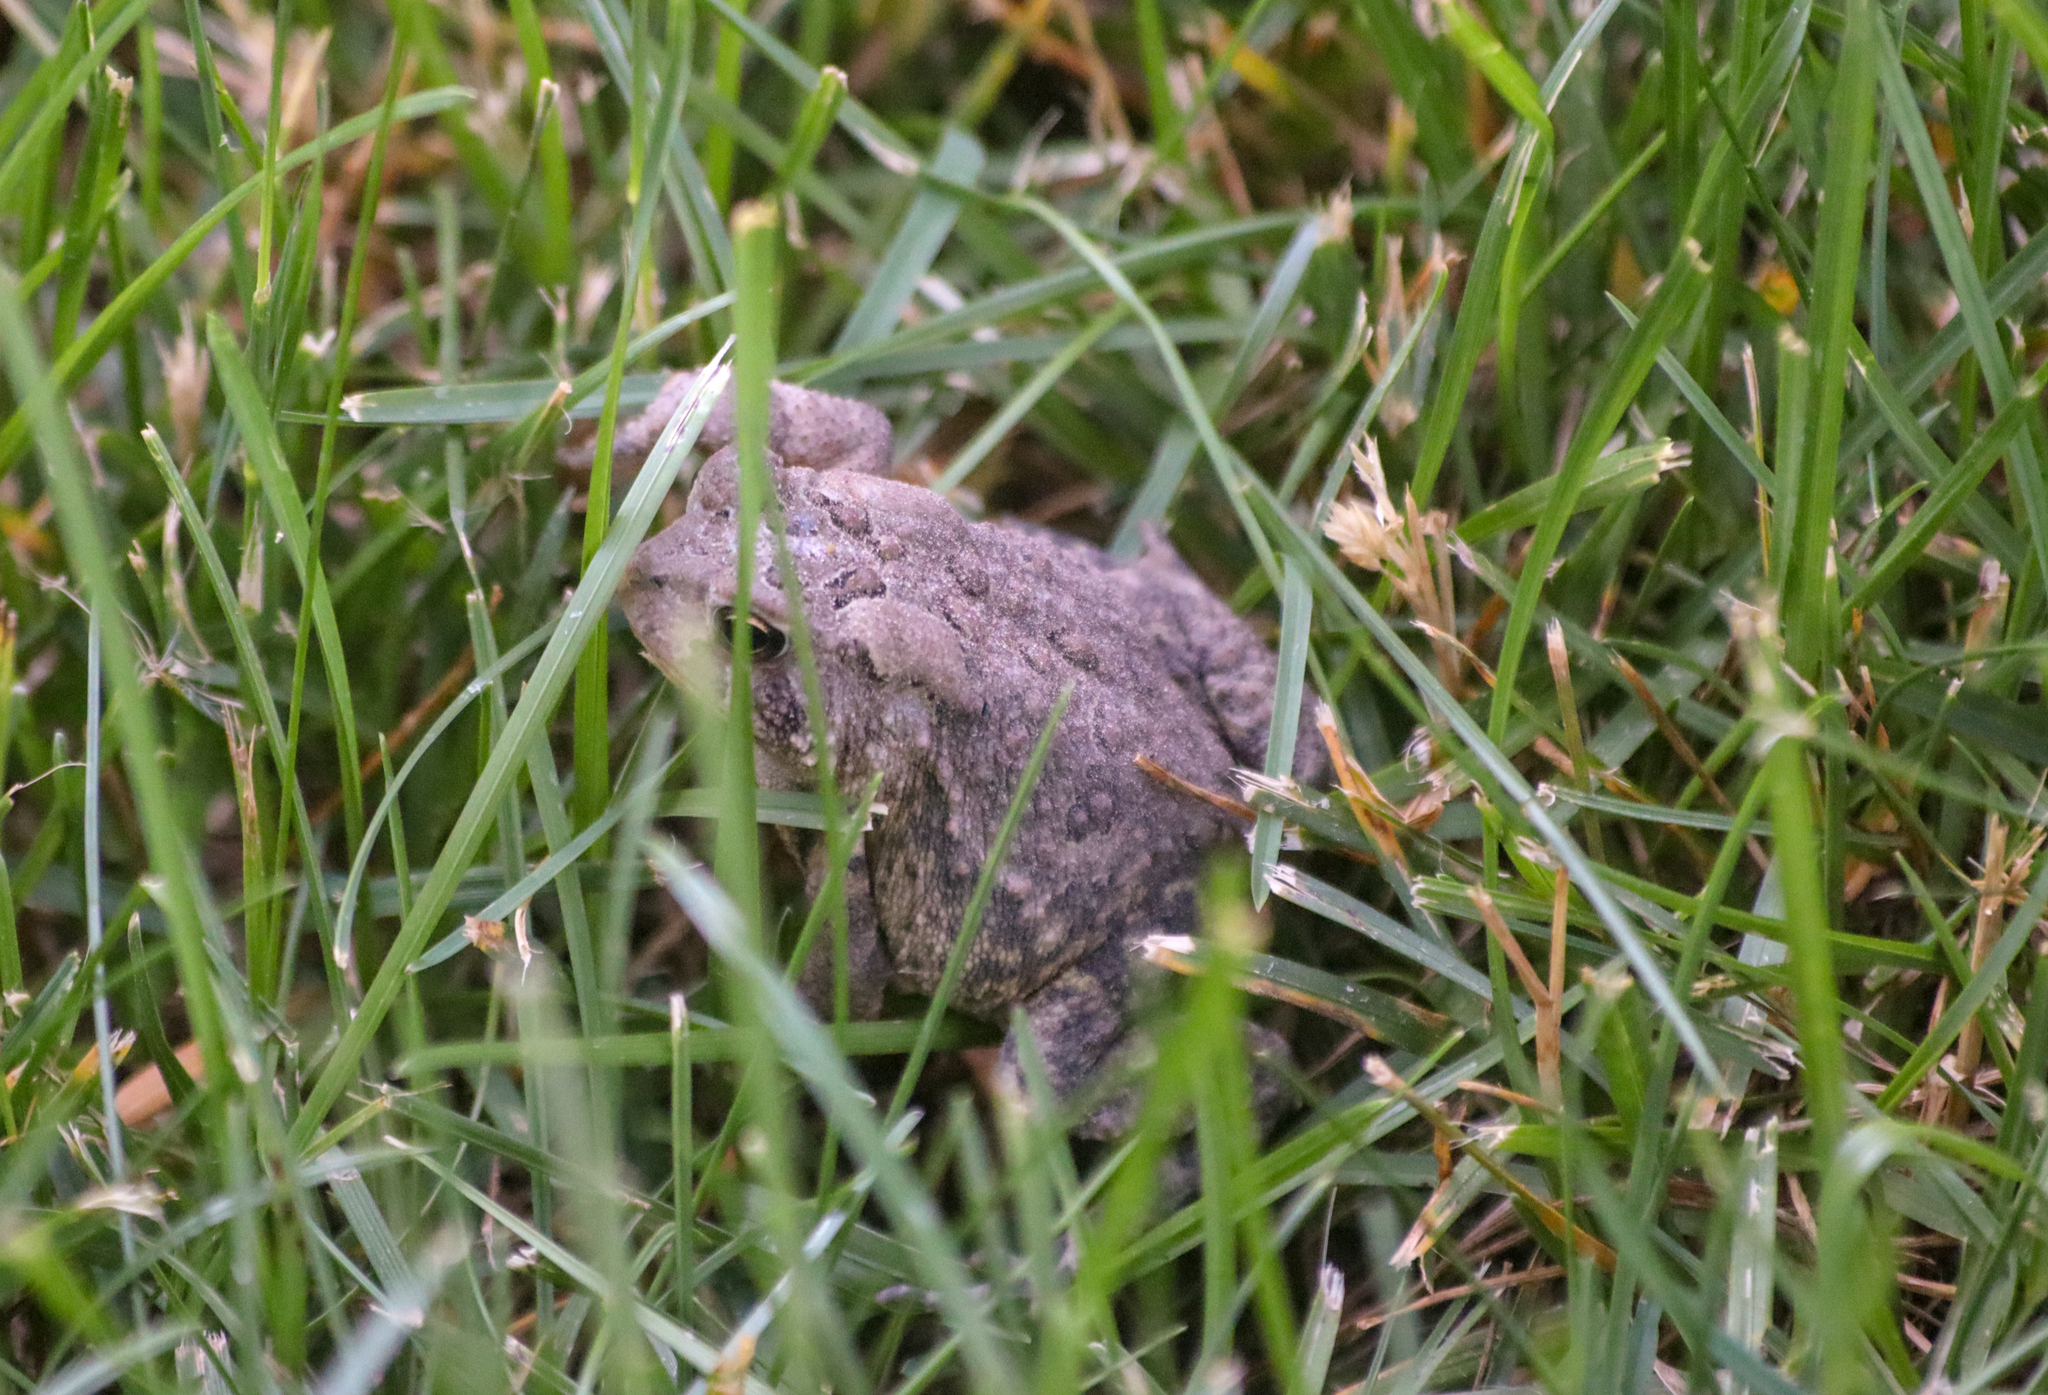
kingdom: Animalia
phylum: Chordata
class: Amphibia
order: Anura
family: Bufonidae
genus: Anaxyrus
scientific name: Anaxyrus americanus
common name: American toad
